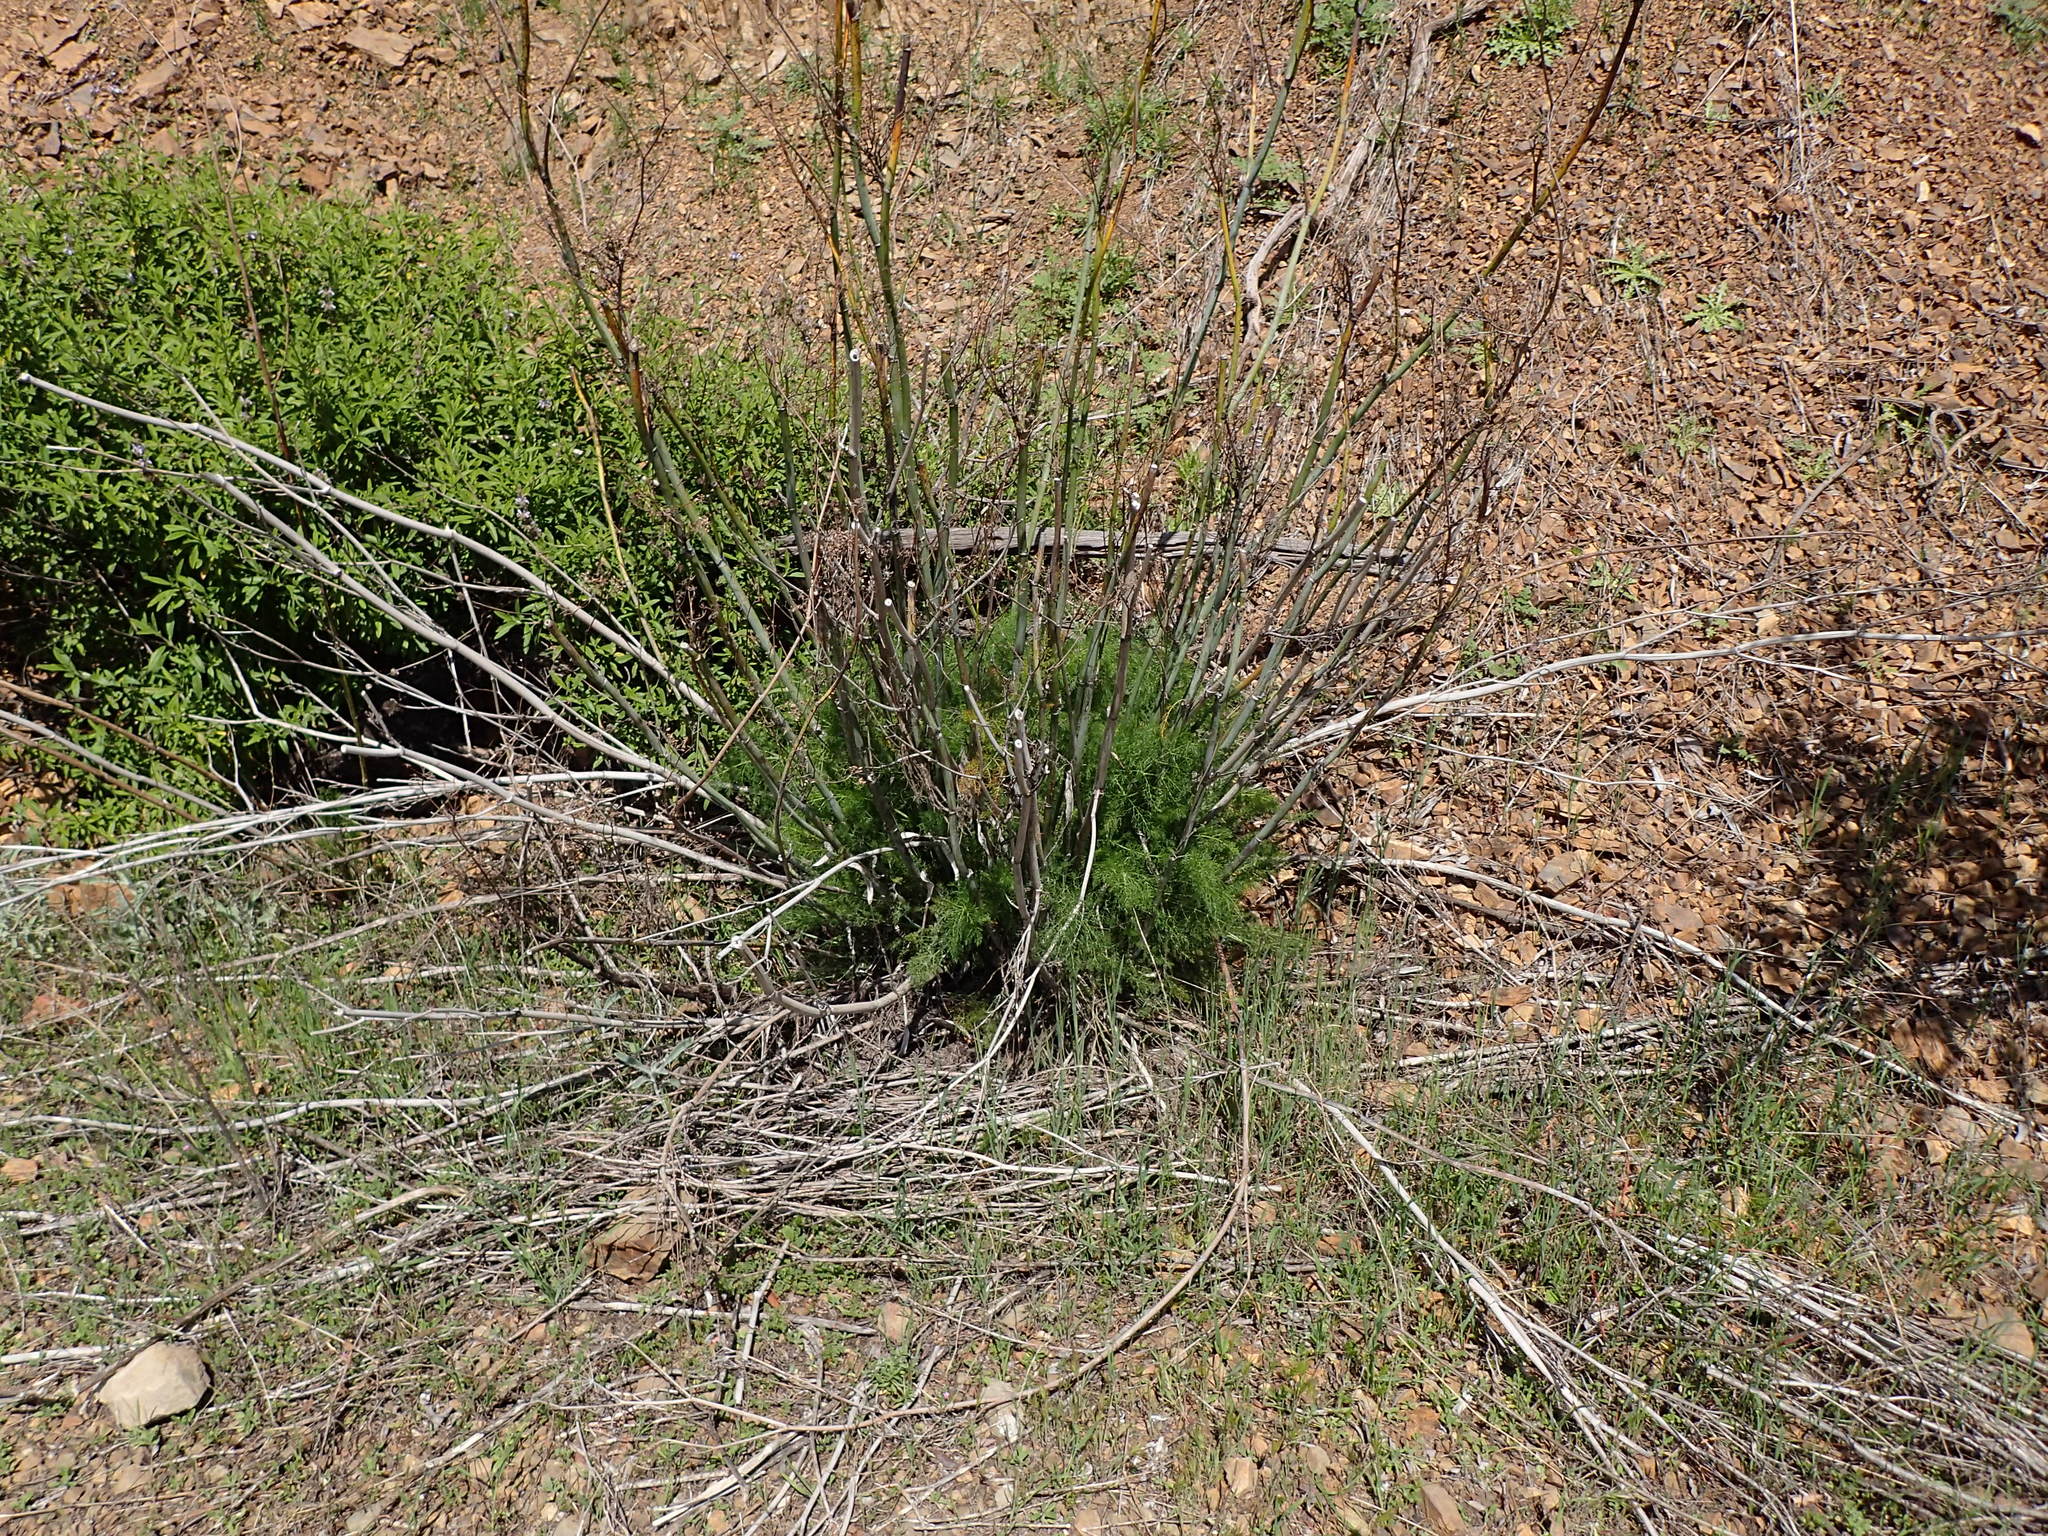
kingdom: Plantae
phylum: Tracheophyta
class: Magnoliopsida
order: Apiales
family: Apiaceae
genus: Foeniculum
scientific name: Foeniculum vulgare
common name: Fennel
